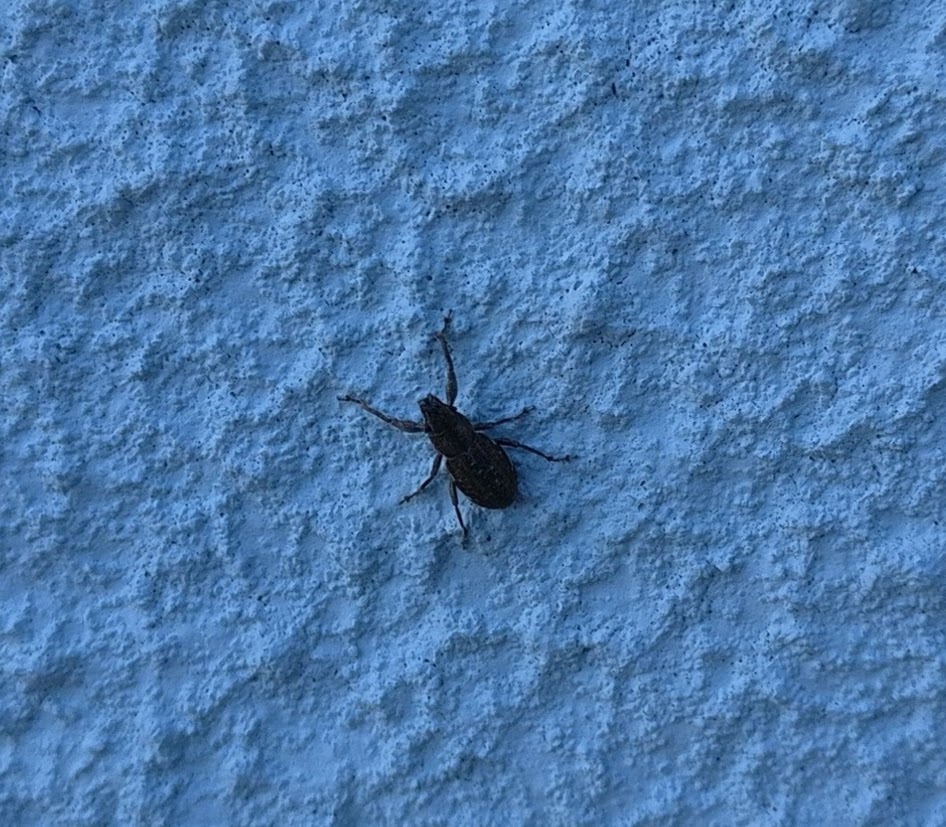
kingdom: Animalia
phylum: Arthropoda
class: Insecta
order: Coleoptera
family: Curculionidae
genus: Naupactus
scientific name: Naupactus cervinus
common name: Fuller rose beetle
